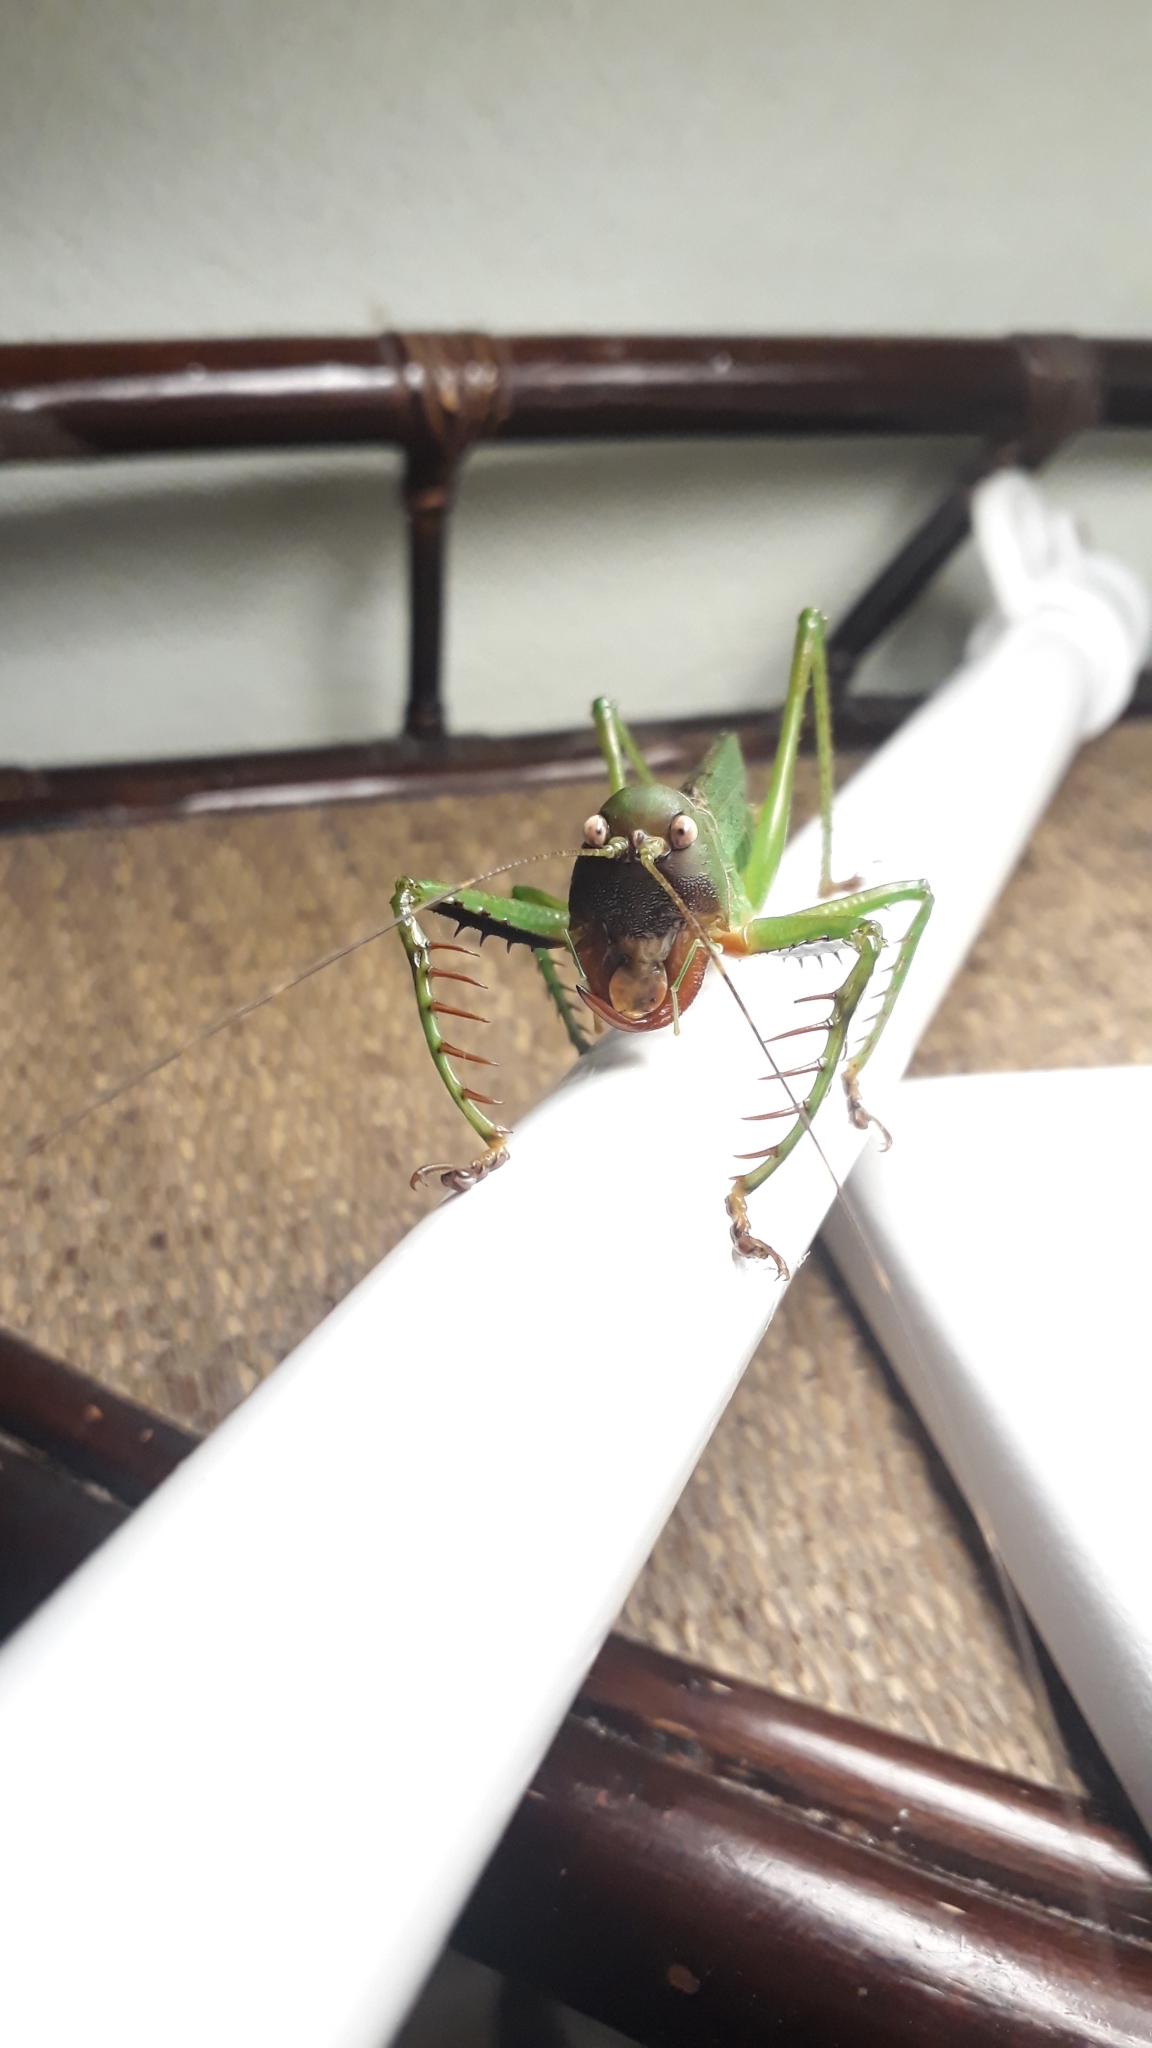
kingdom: Animalia
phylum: Arthropoda
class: Insecta
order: Orthoptera
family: Tettigoniidae
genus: Cerberodon
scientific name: Cerberodon viridis
